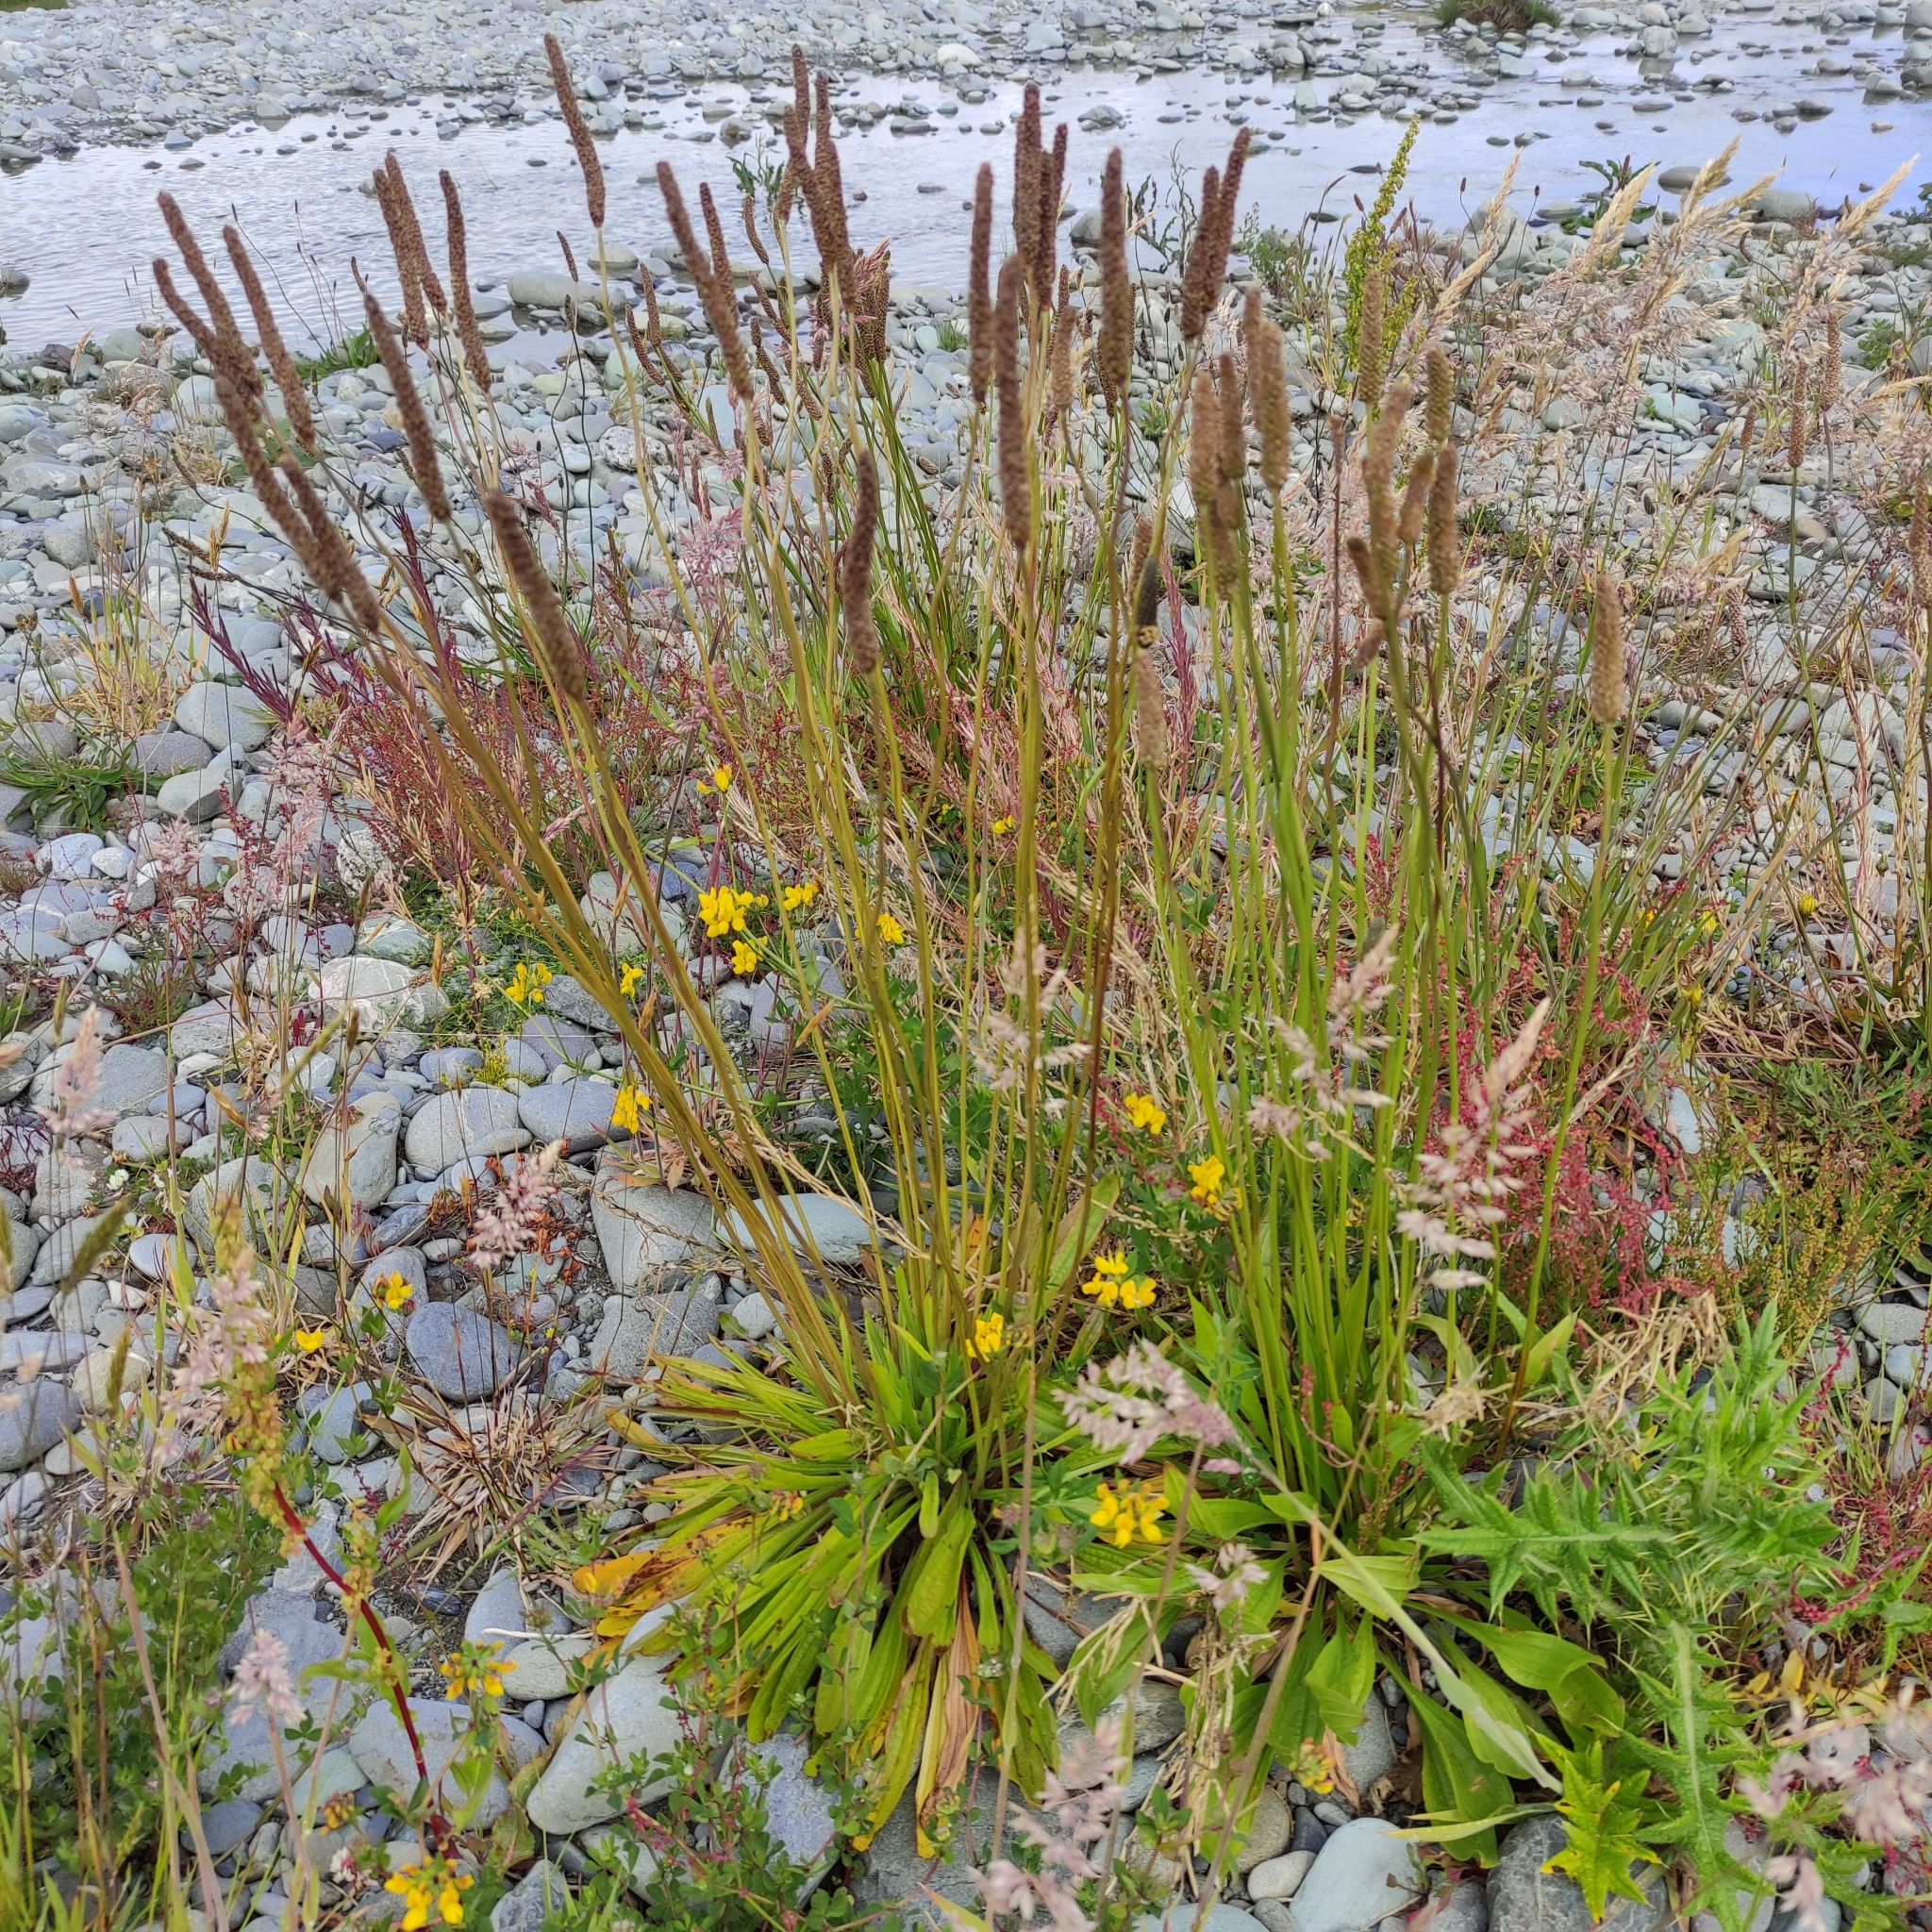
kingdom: Plantae
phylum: Tracheophyta
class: Magnoliopsida
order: Lamiales
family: Plantaginaceae
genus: Plantago
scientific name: Plantago lanceolata
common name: Ribwort plantain
